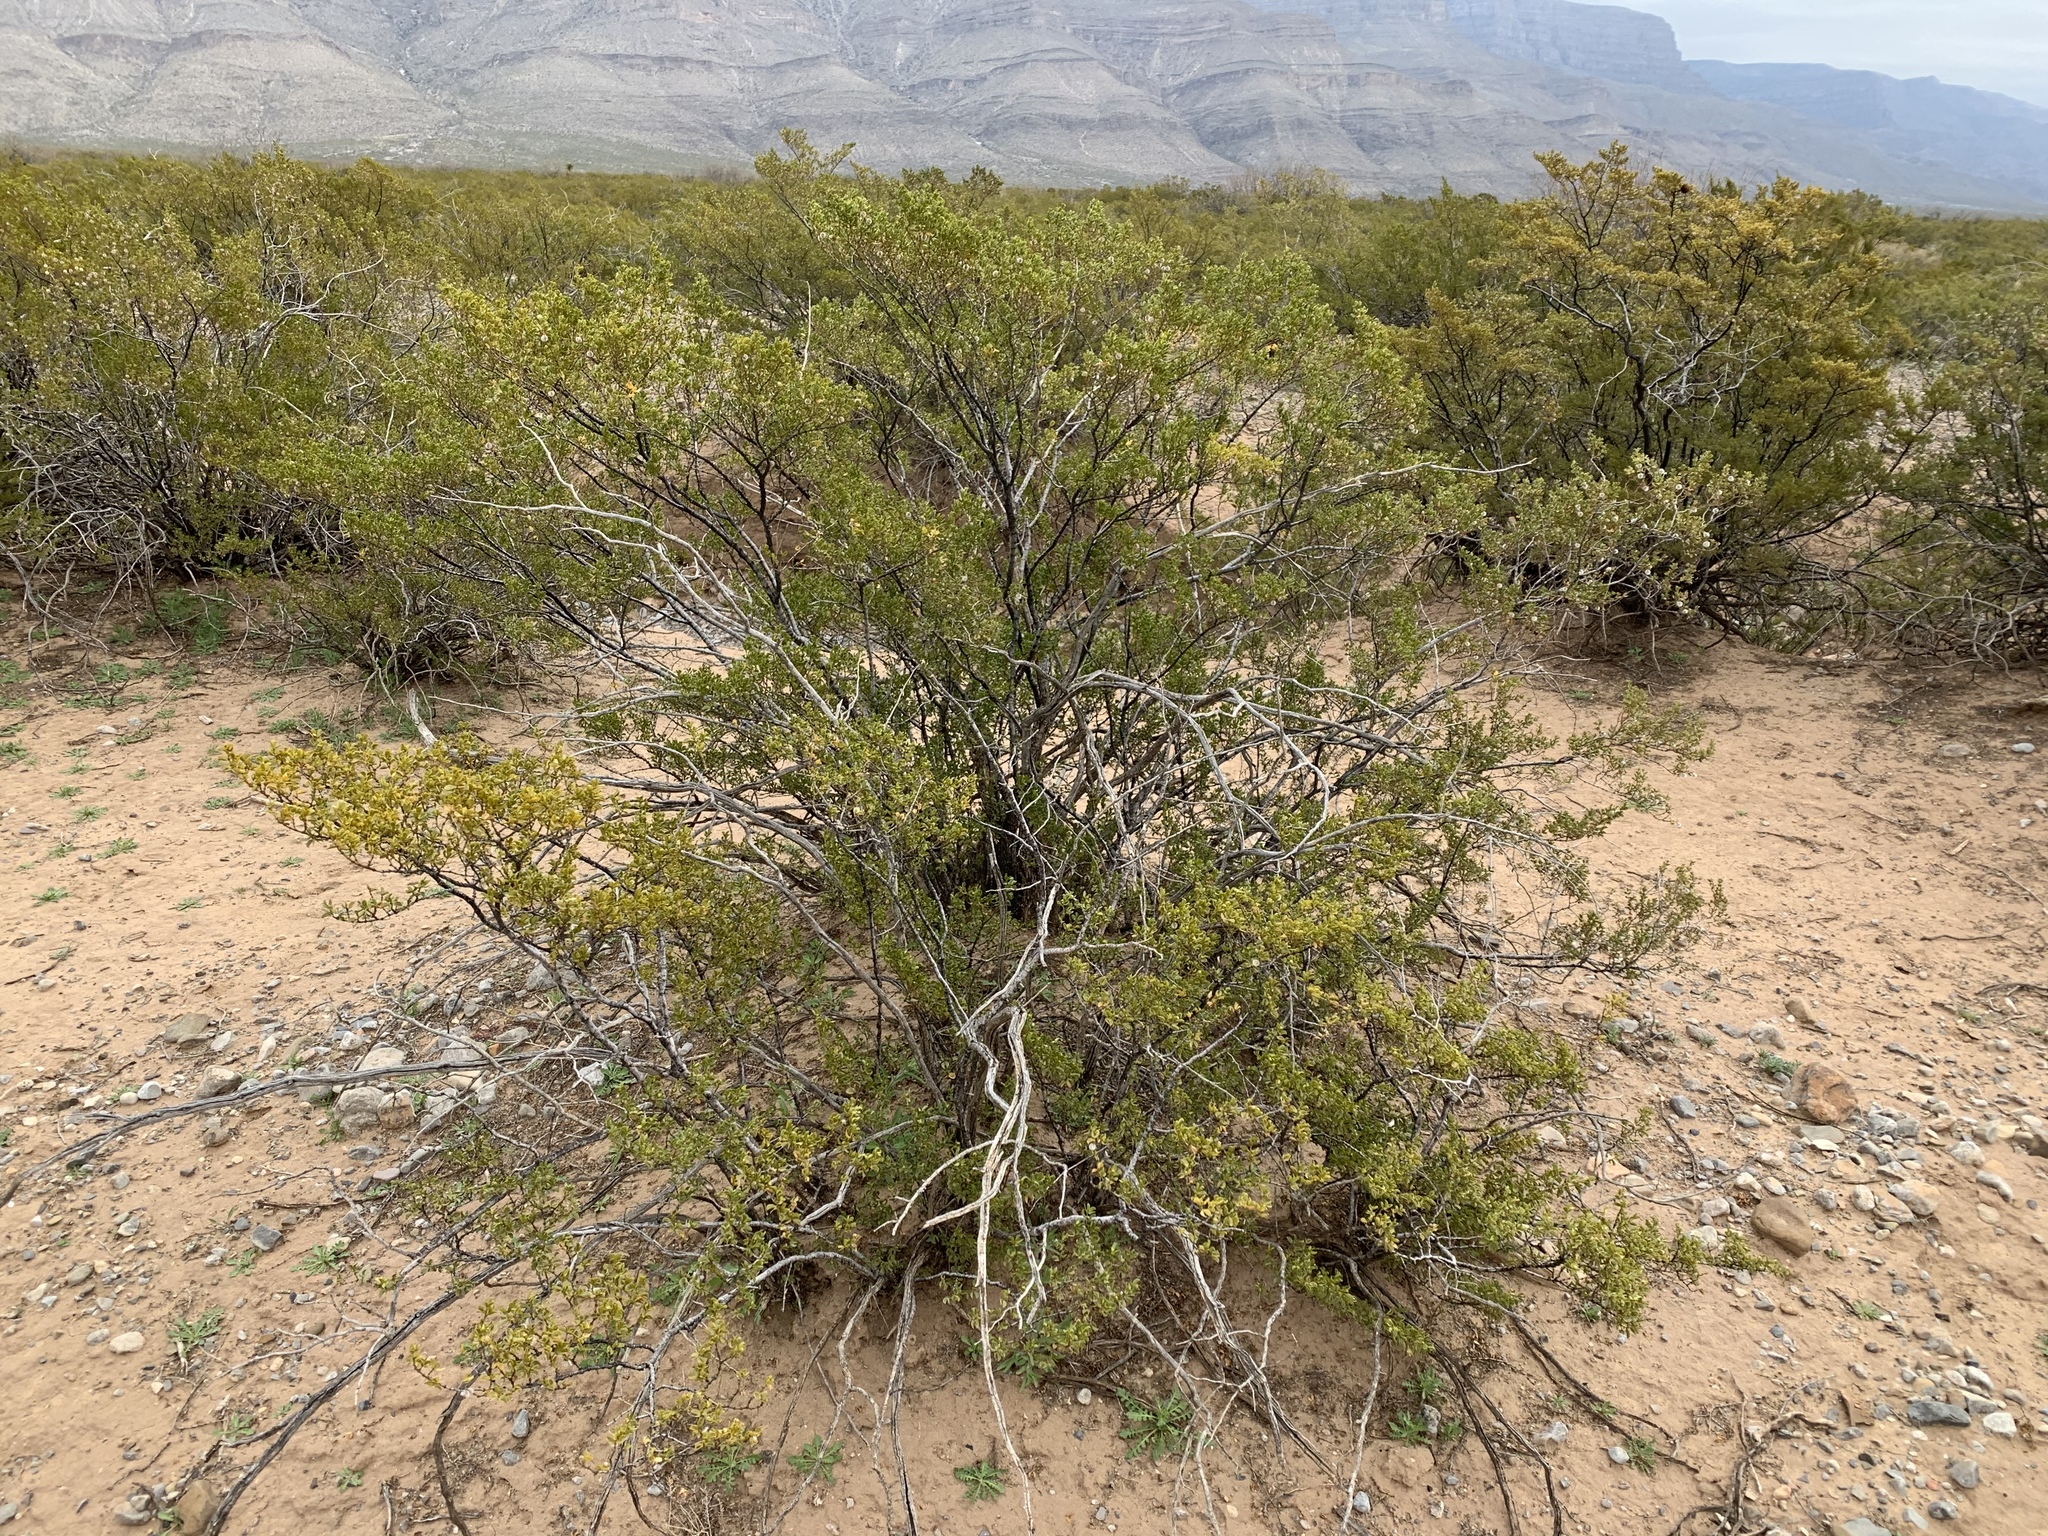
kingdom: Plantae
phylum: Tracheophyta
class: Magnoliopsida
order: Zygophyllales
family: Zygophyllaceae
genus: Larrea
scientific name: Larrea tridentata
